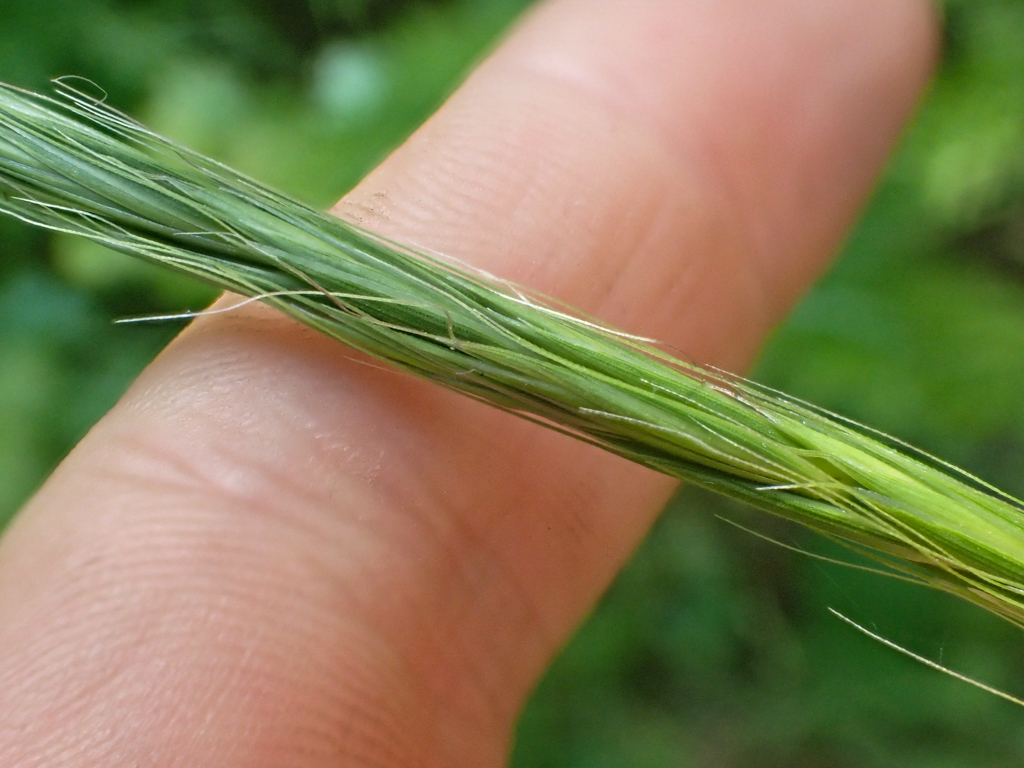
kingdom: Plantae
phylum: Tracheophyta
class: Liliopsida
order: Poales
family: Poaceae
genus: Elymus
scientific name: Elymus glaucus
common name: Blue wild rye
